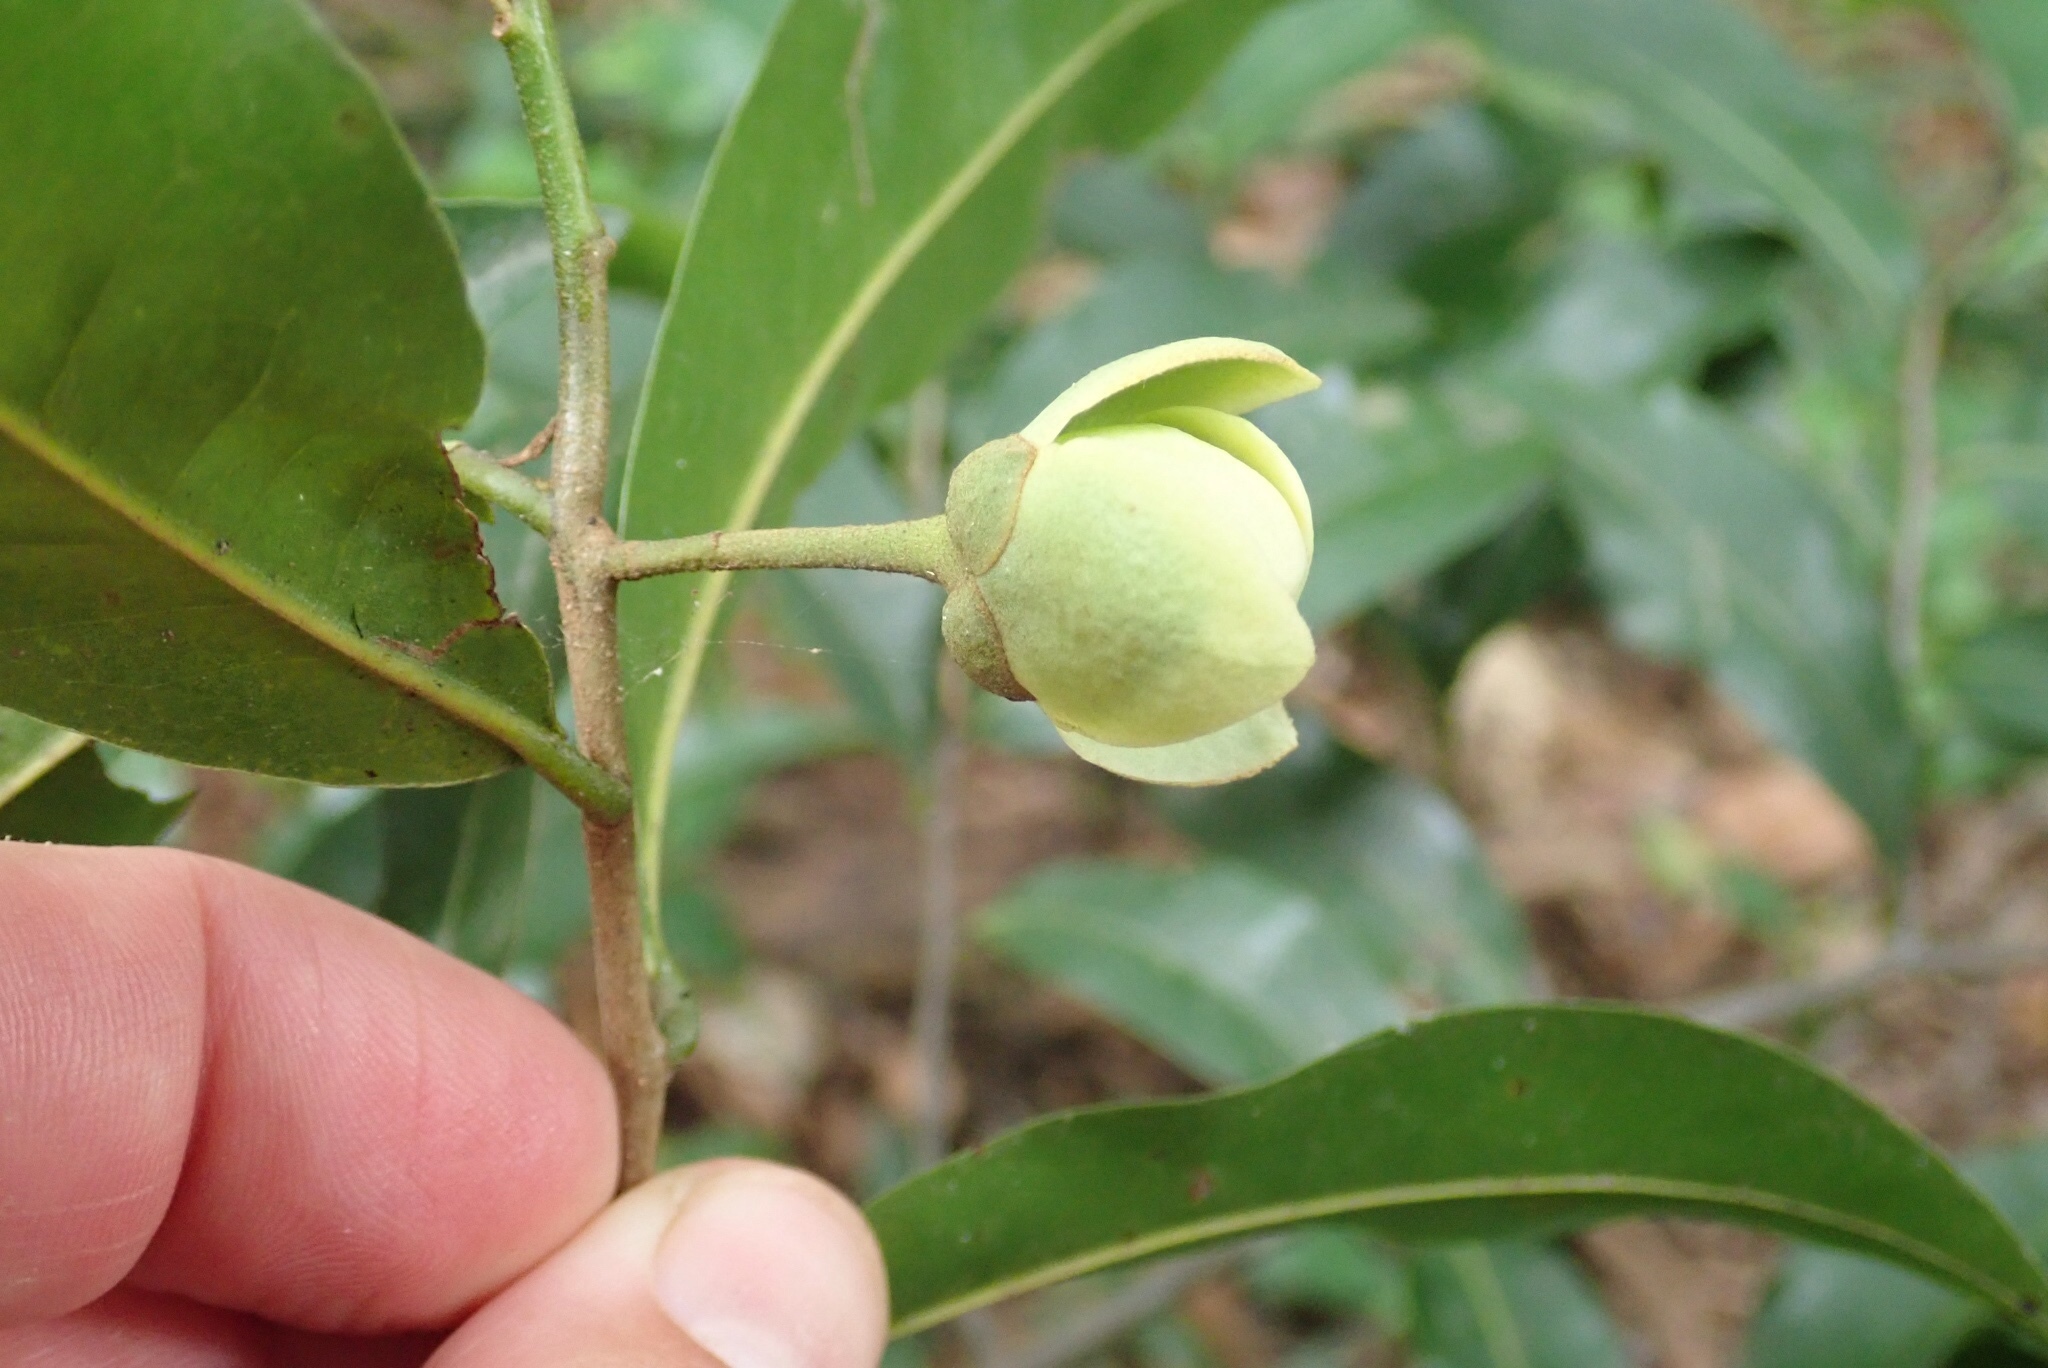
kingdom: Plantae
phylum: Tracheophyta
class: Magnoliopsida
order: Magnoliales
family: Annonaceae
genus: Monanthotaxis
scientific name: Monanthotaxis caffra
